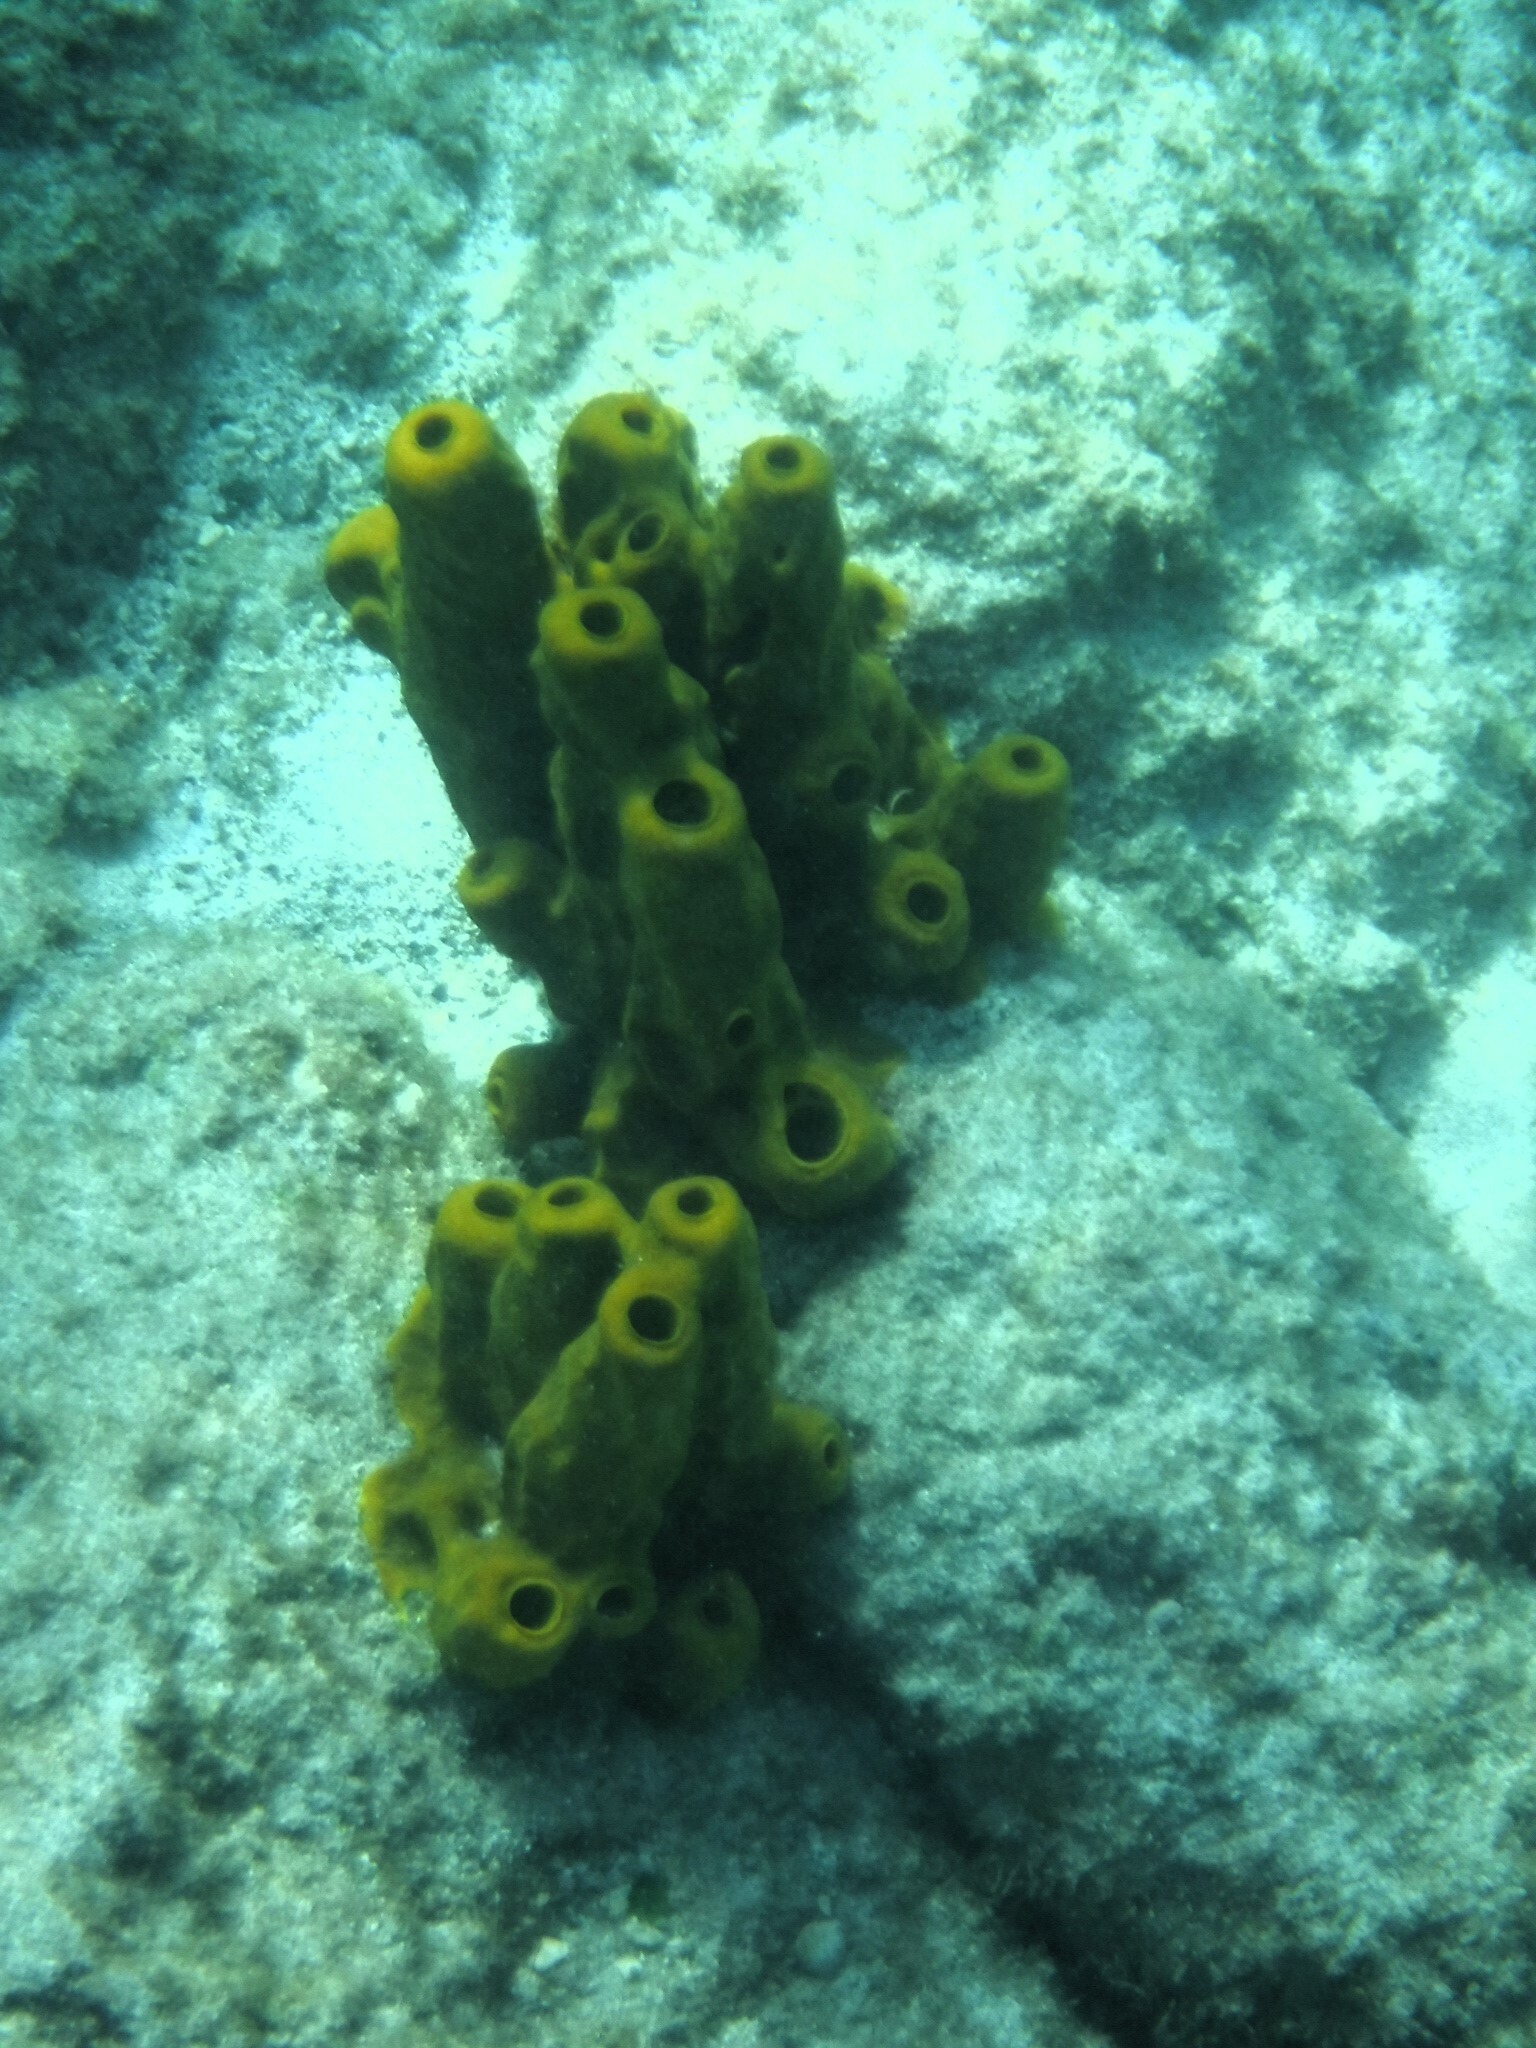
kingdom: Animalia
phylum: Porifera
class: Demospongiae
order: Verongiida
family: Aplysinidae
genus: Aplysina
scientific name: Aplysina fistularis
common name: Candle sponge
